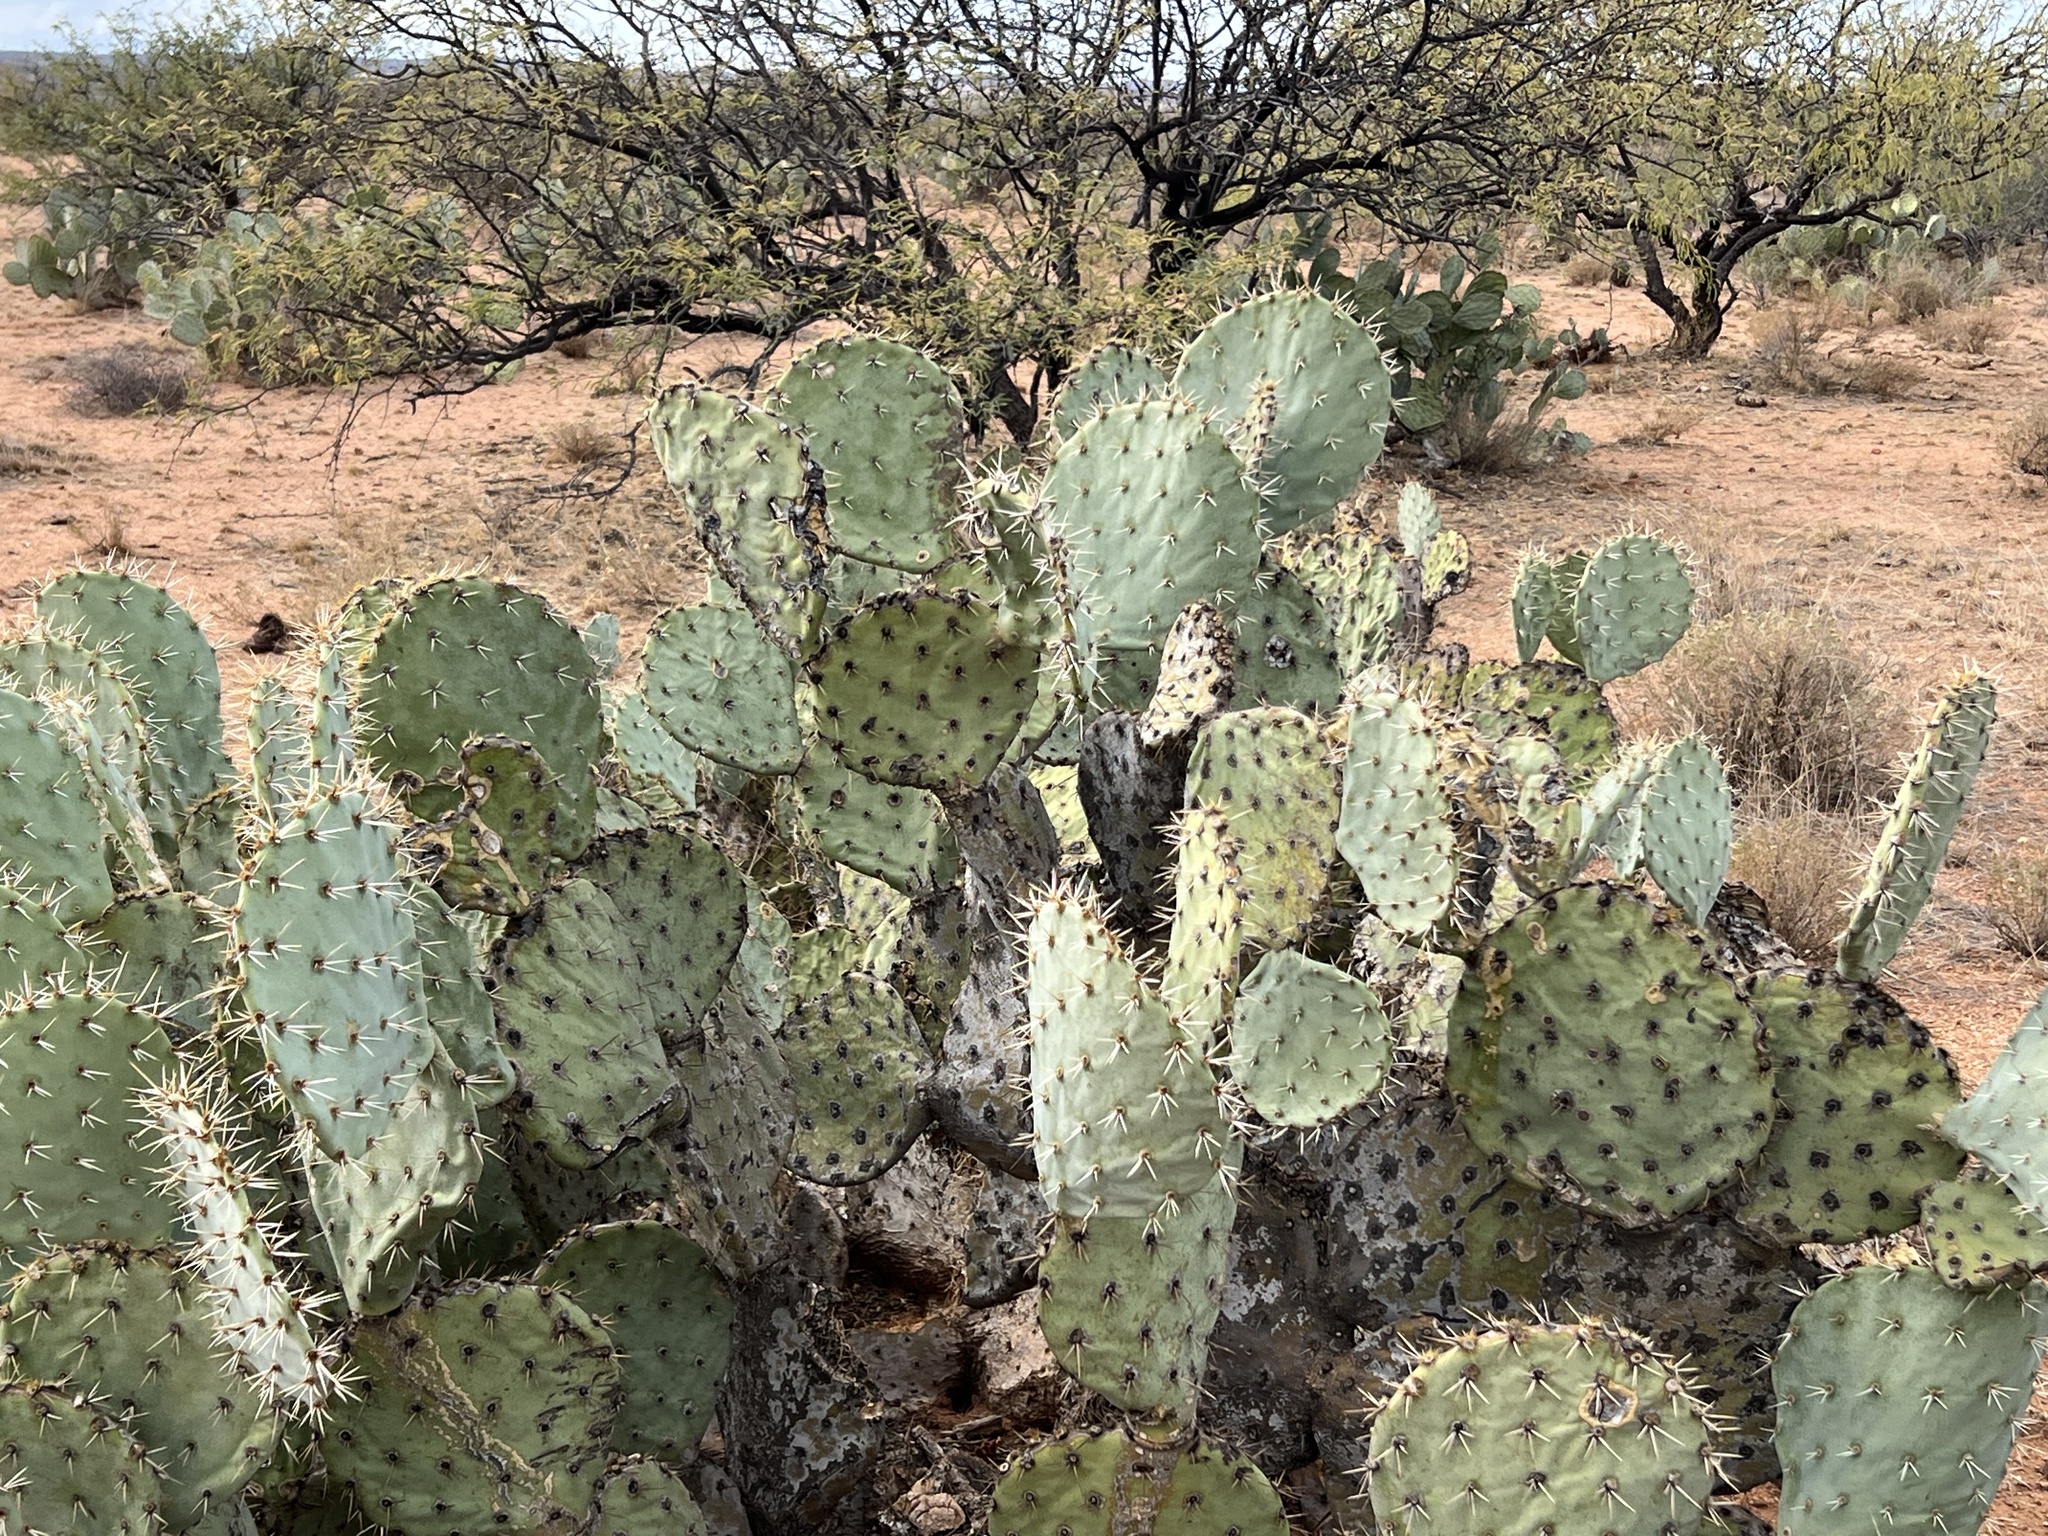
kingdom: Plantae
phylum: Tracheophyta
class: Magnoliopsida
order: Caryophyllales
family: Cactaceae
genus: Opuntia
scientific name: Opuntia engelmannii
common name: Cactus-apple
